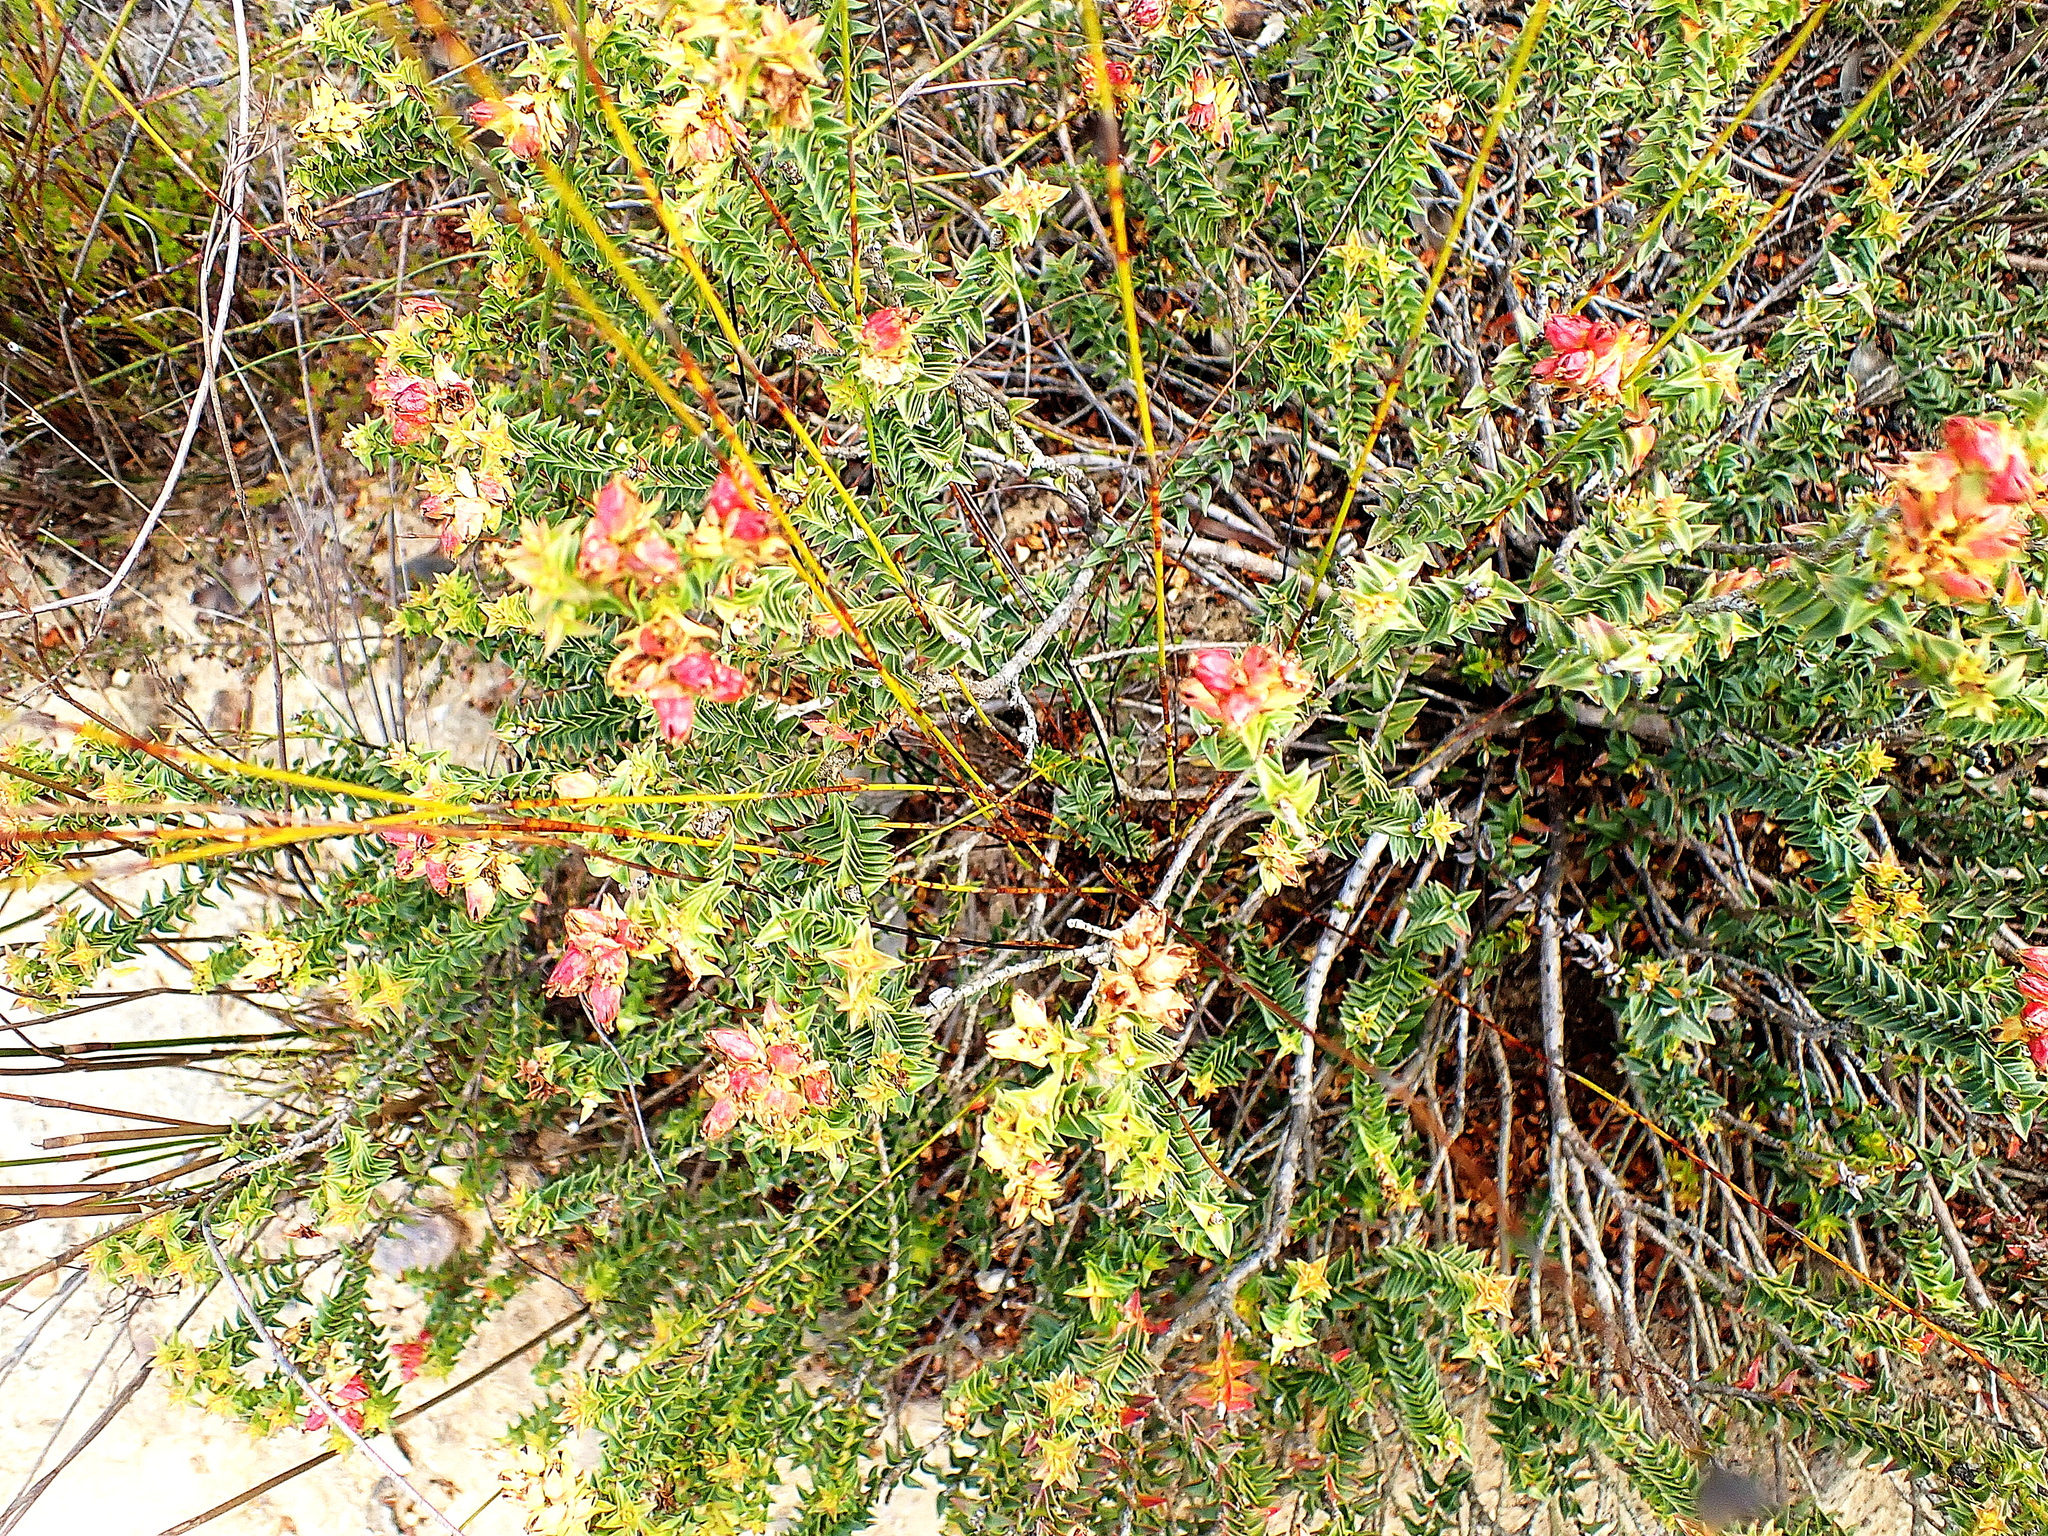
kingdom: Plantae
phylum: Tracheophyta
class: Magnoliopsida
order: Myrtales
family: Penaeaceae
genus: Penaea
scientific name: Penaea mucronata
